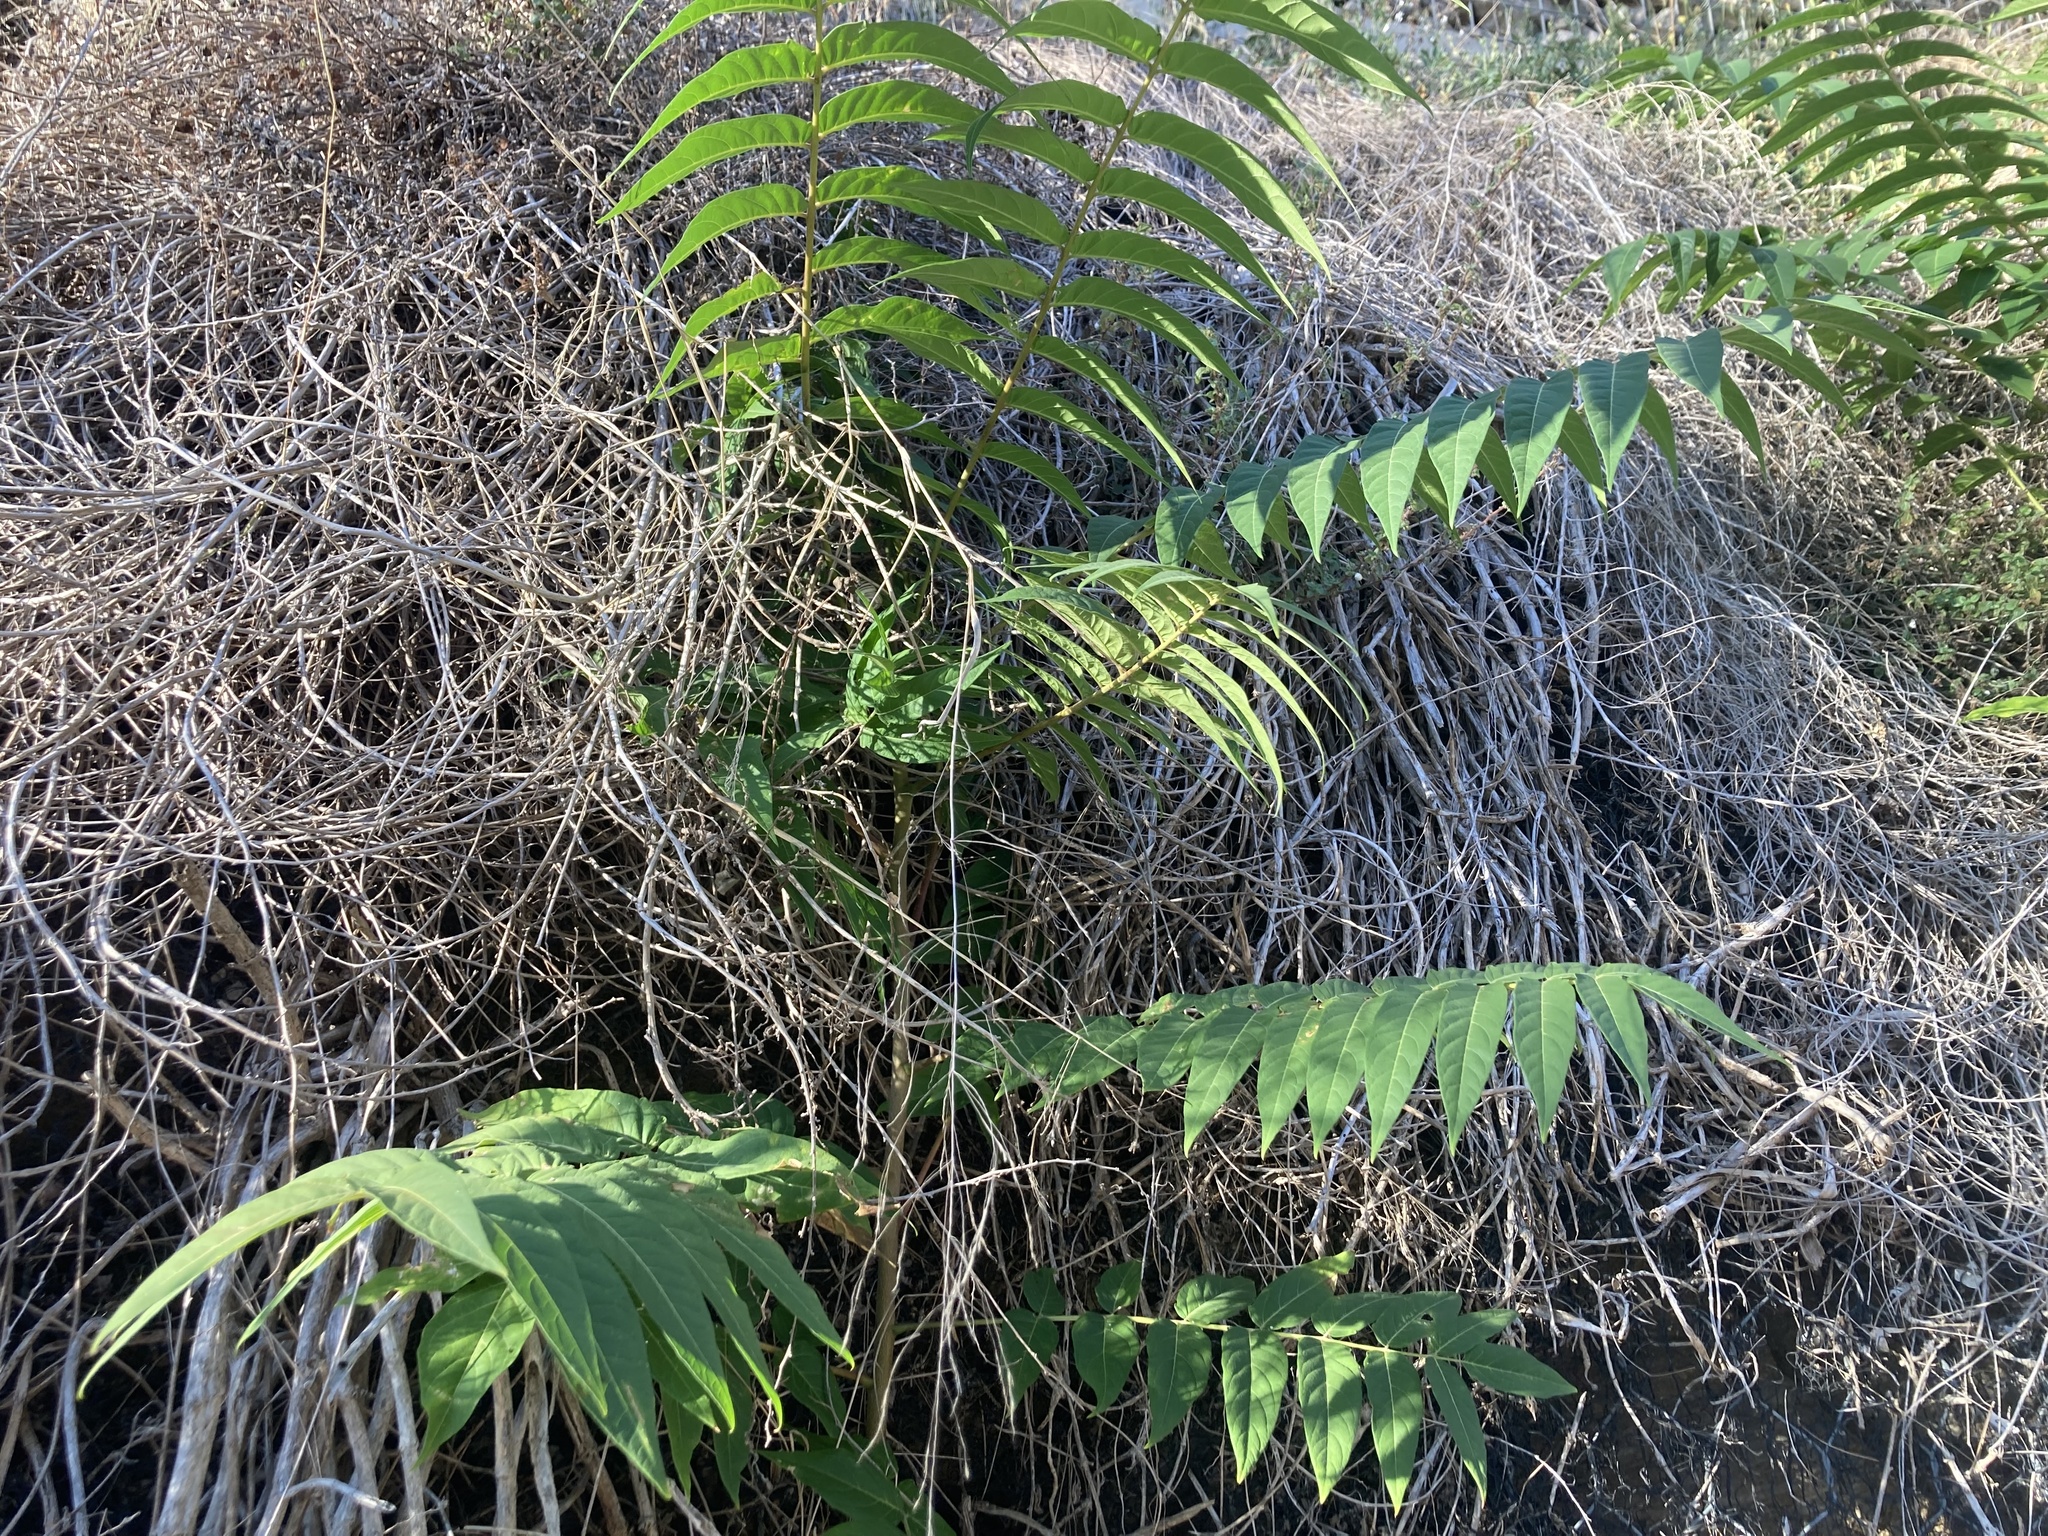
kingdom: Plantae
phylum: Tracheophyta
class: Magnoliopsida
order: Sapindales
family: Simaroubaceae
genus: Ailanthus
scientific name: Ailanthus altissima
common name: Tree-of-heaven
